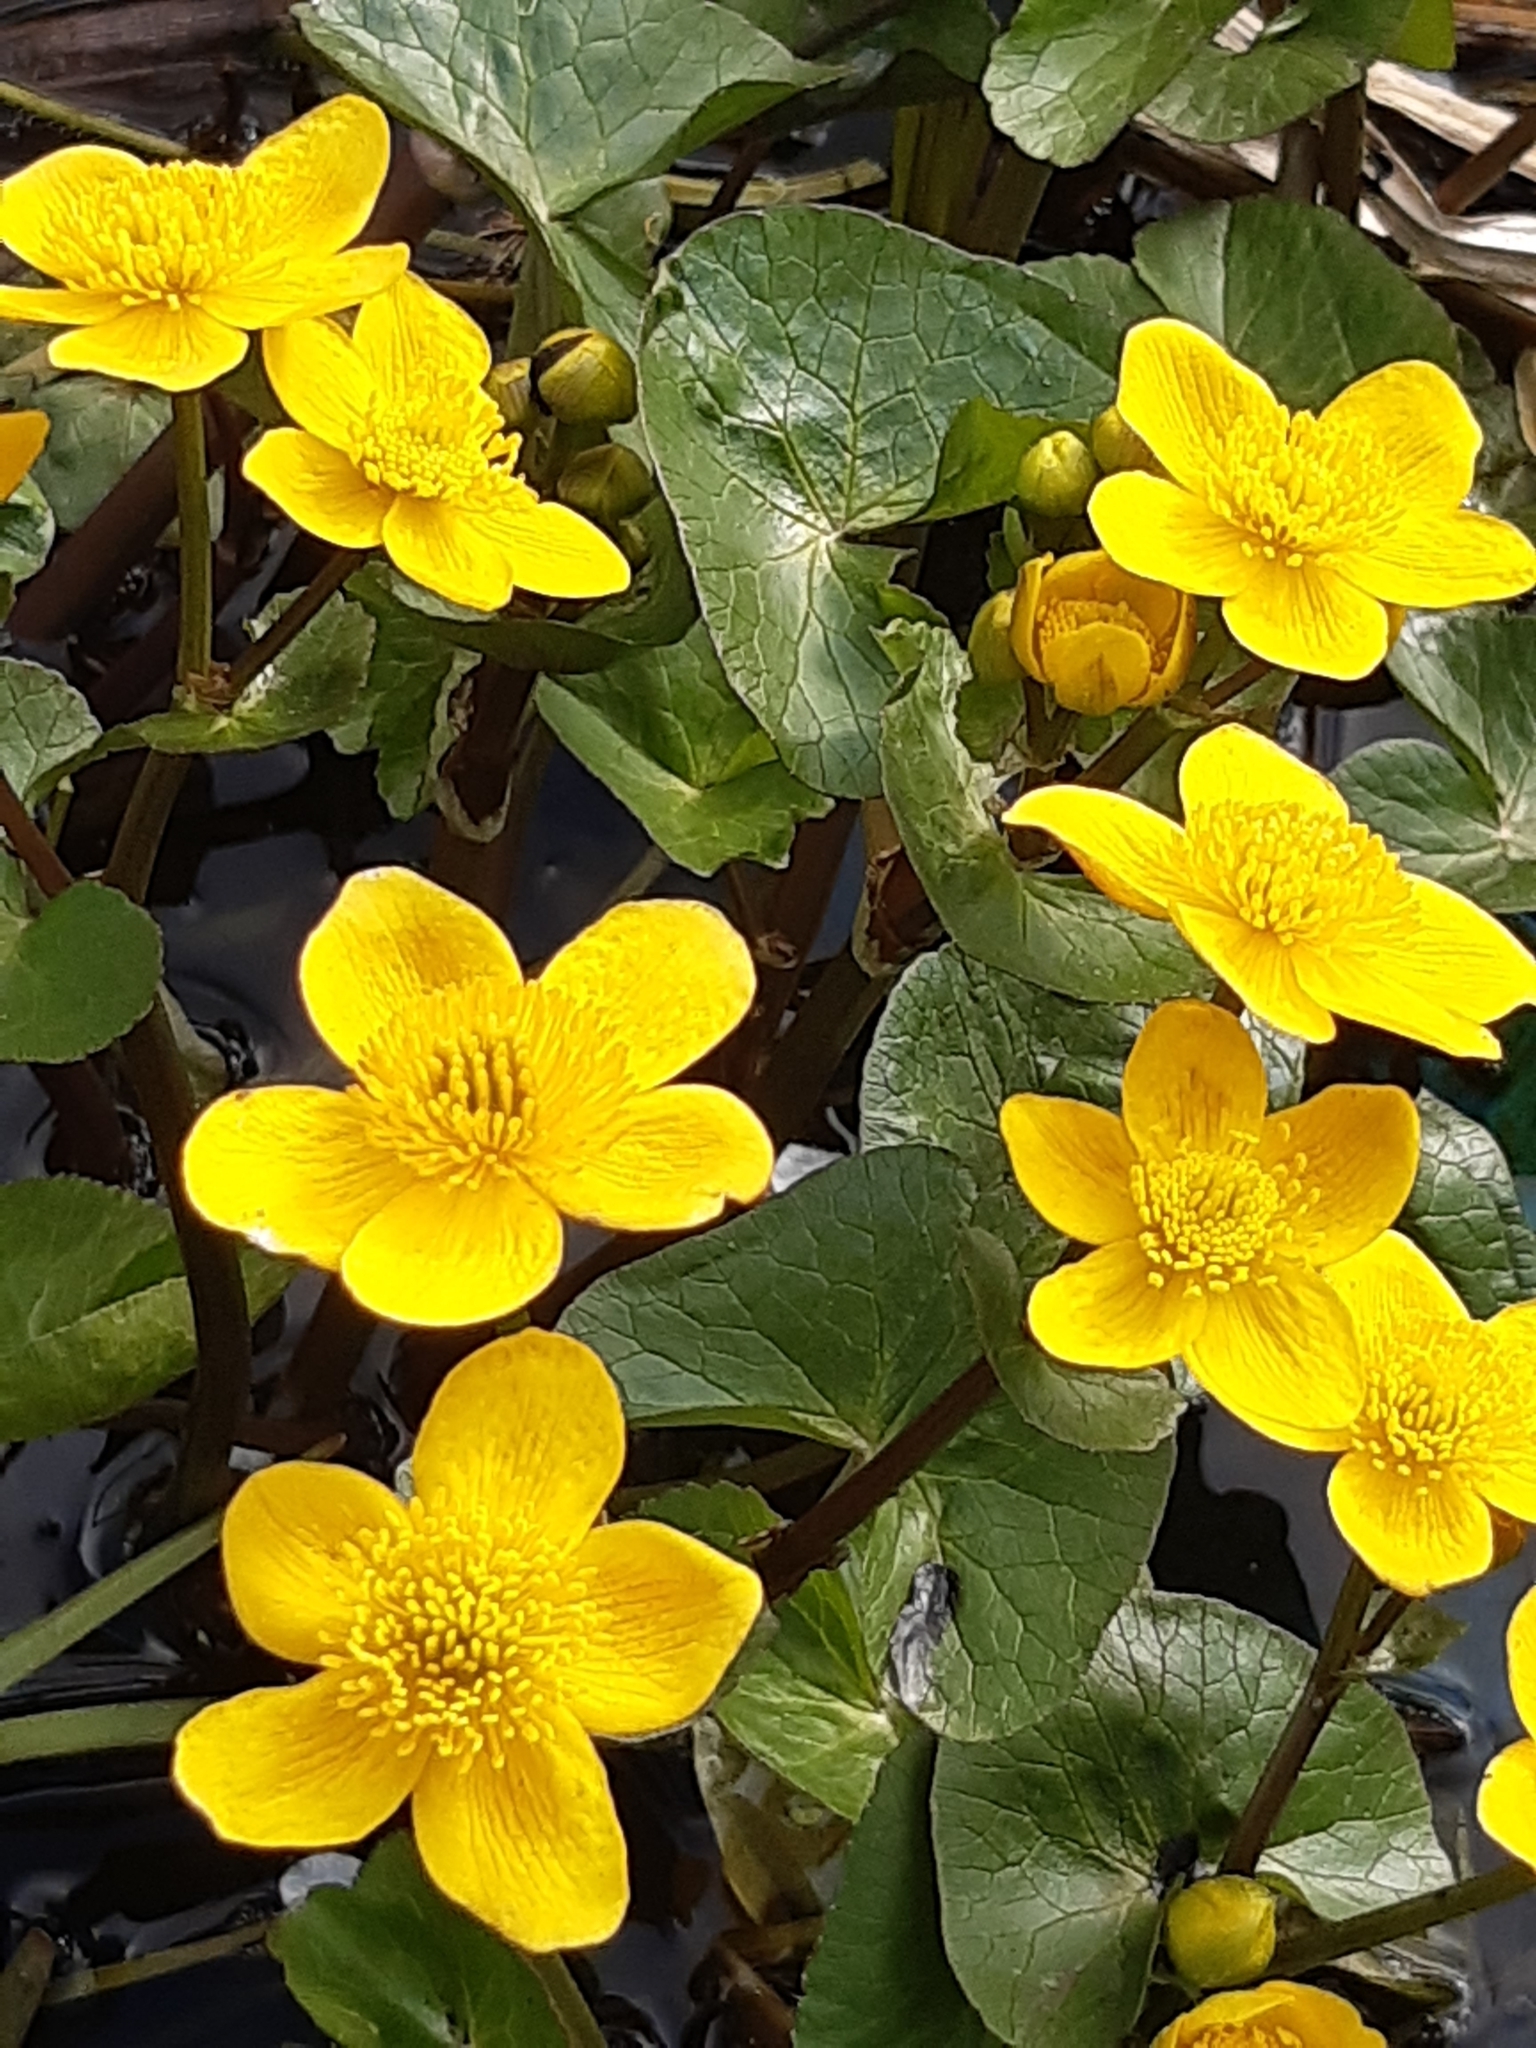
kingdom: Plantae
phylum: Tracheophyta
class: Magnoliopsida
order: Ranunculales
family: Ranunculaceae
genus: Caltha
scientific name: Caltha palustris
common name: Marsh marigold
